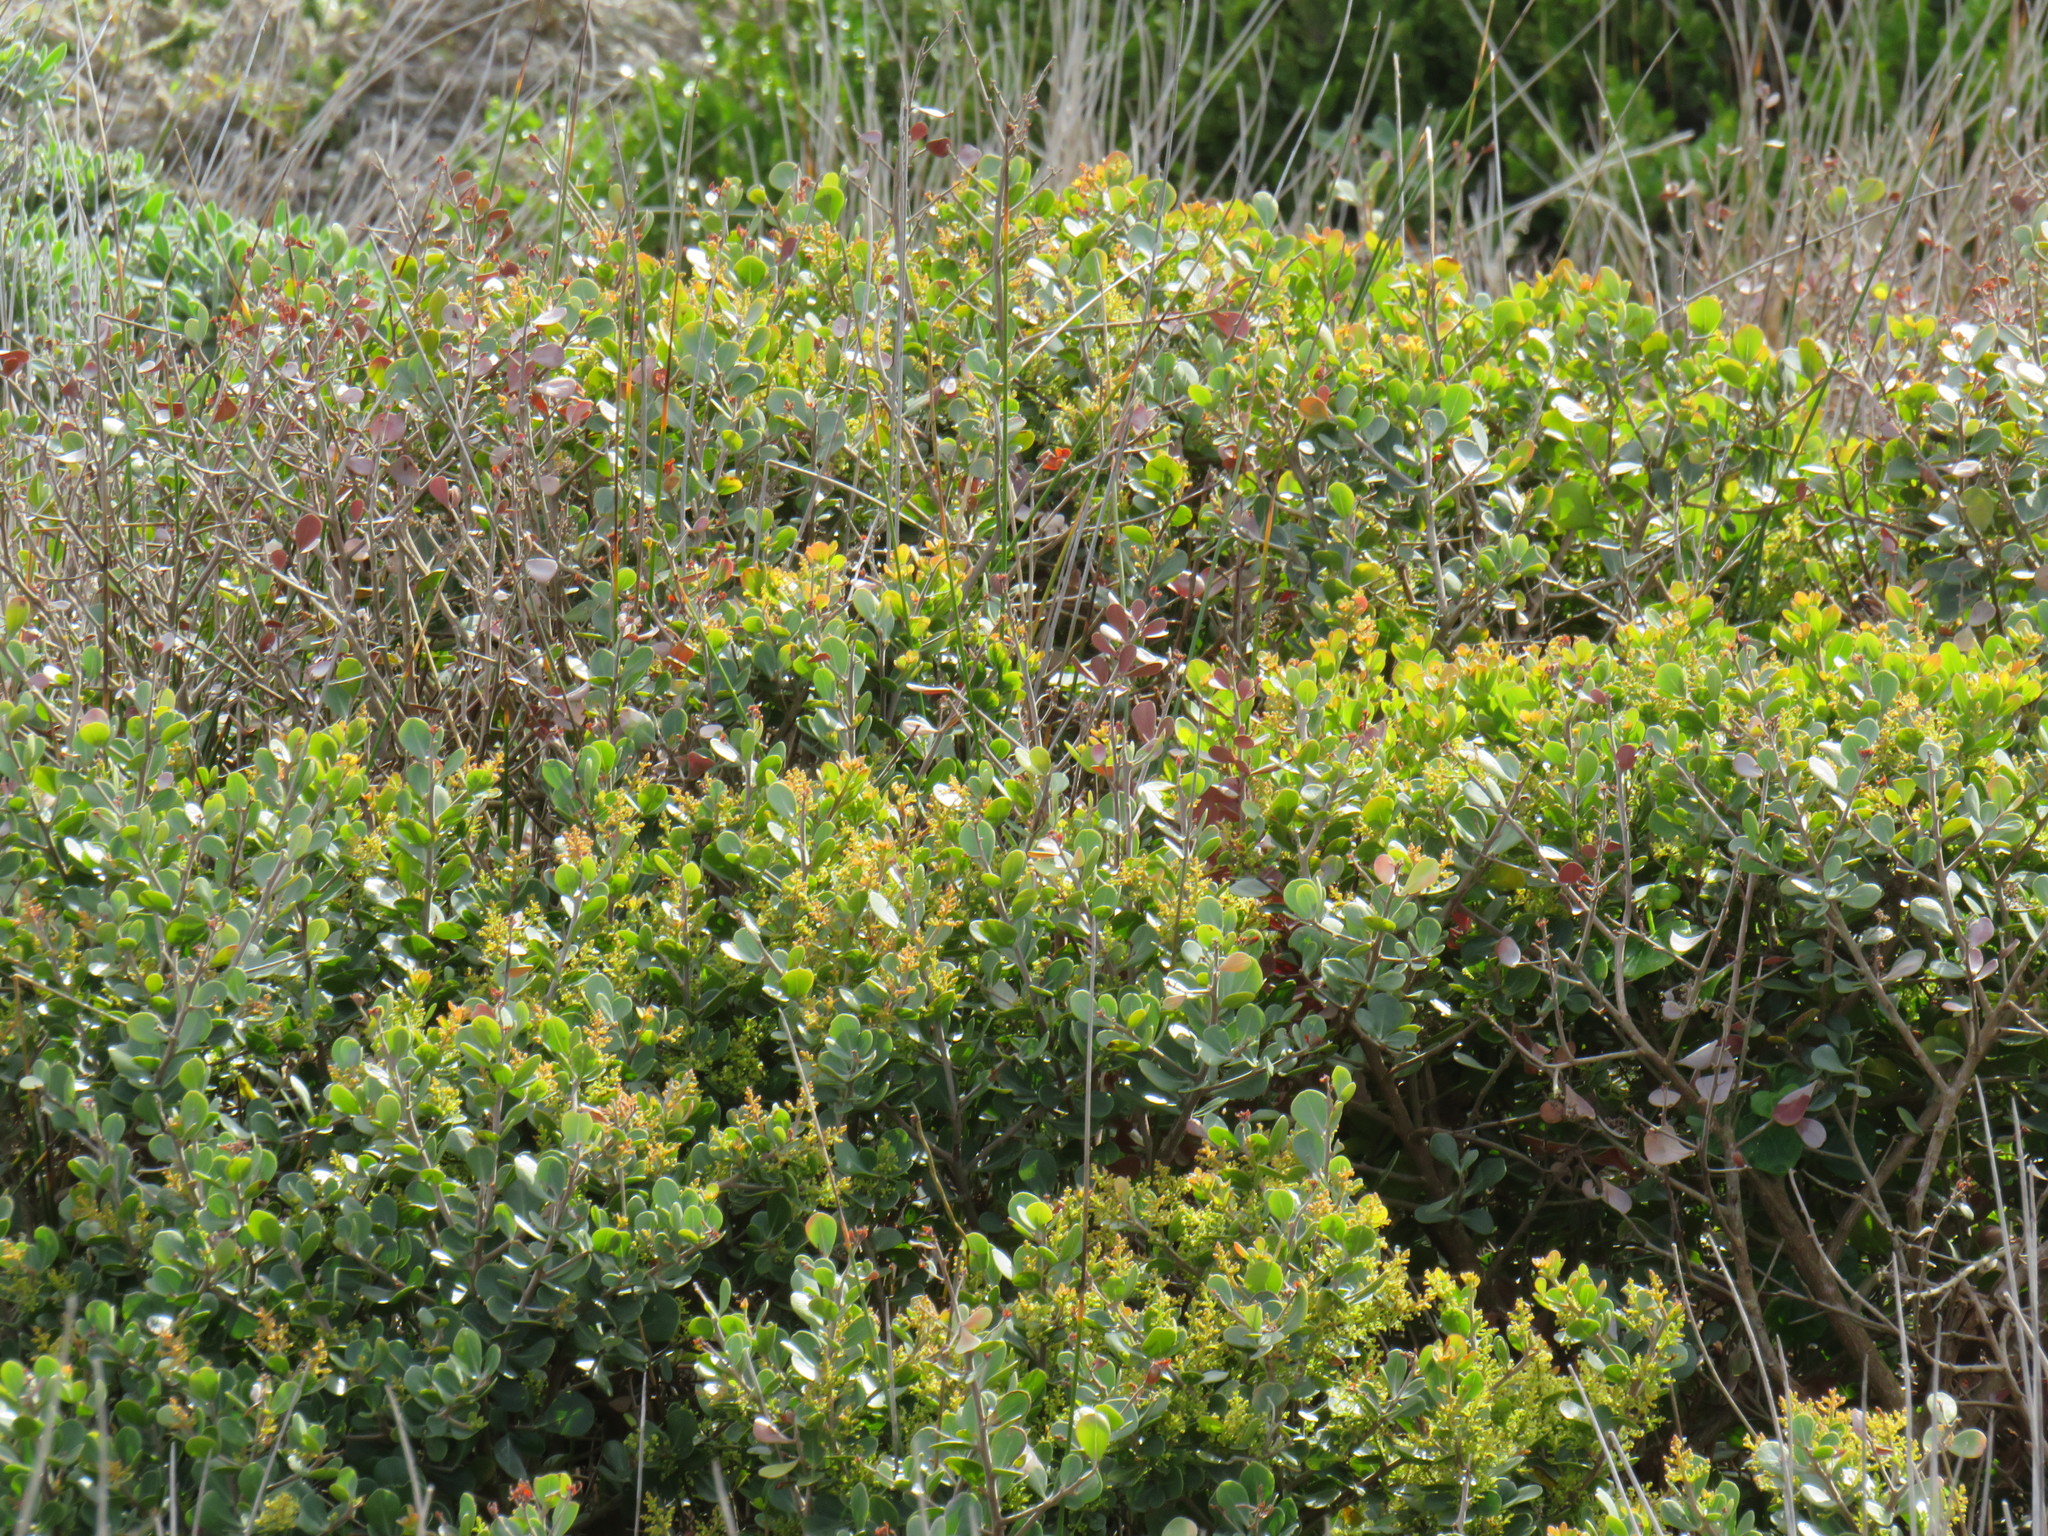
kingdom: Plantae
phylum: Tracheophyta
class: Magnoliopsida
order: Sapindales
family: Anacardiaceae
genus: Searsia
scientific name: Searsia lucida
